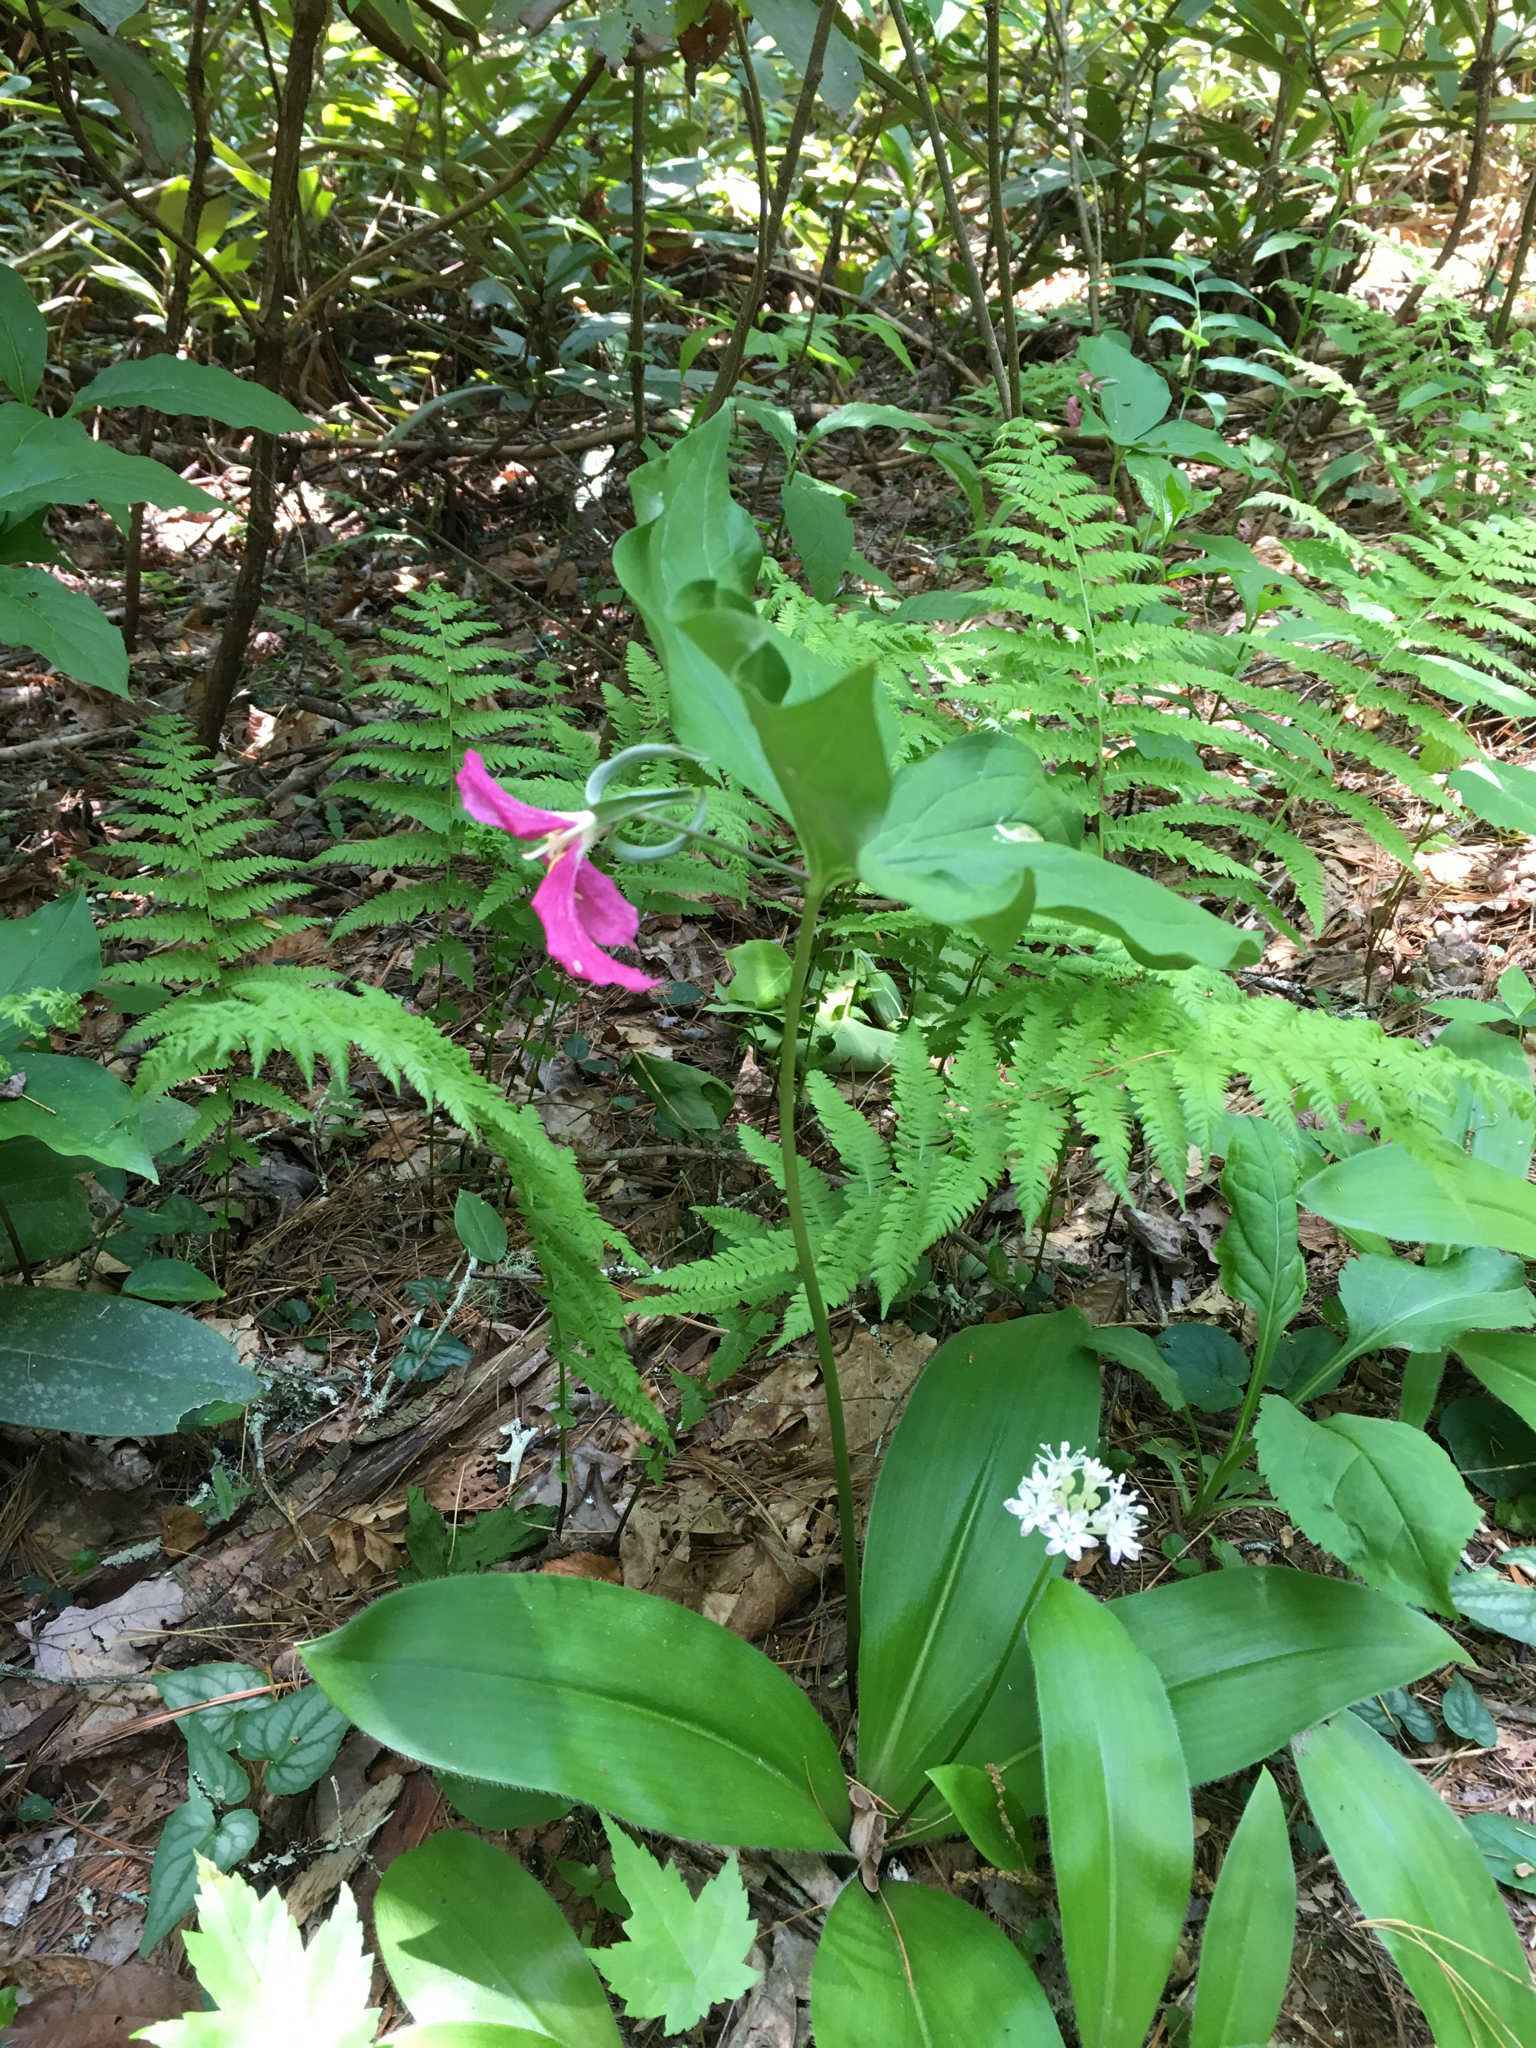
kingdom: Plantae
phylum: Tracheophyta
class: Liliopsida
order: Liliales
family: Melanthiaceae
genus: Trillium
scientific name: Trillium catesbaei
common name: Bashful trillium
